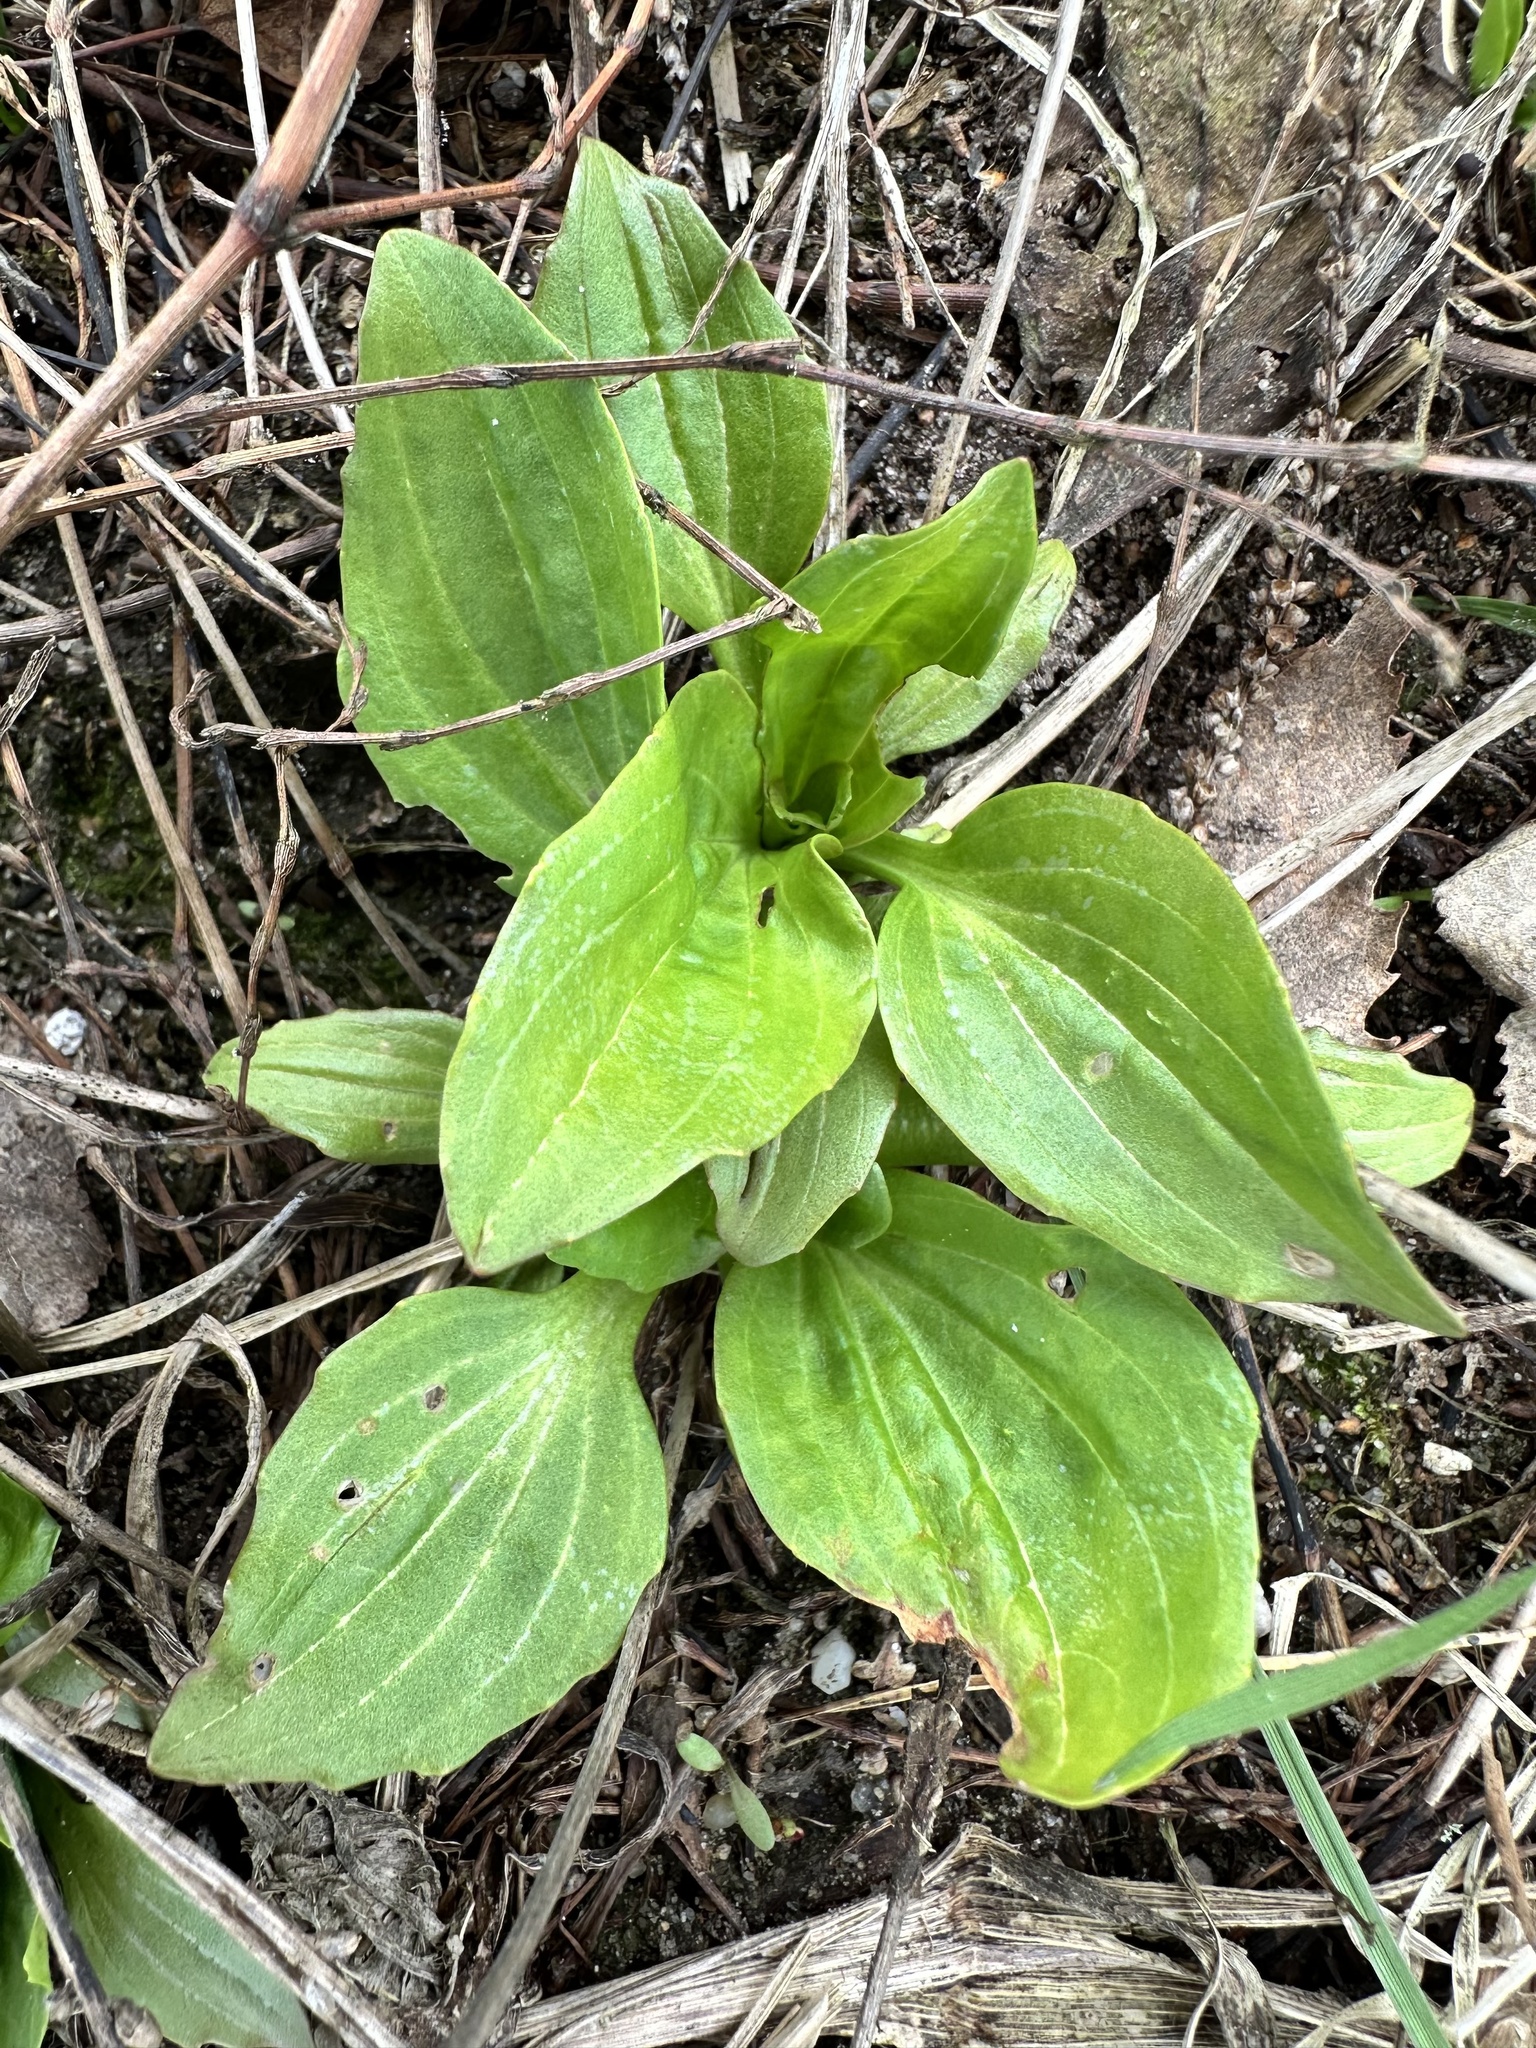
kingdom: Plantae
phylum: Tracheophyta
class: Magnoliopsida
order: Lamiales
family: Plantaginaceae
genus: Plantago
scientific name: Plantago major
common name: Common plantain
